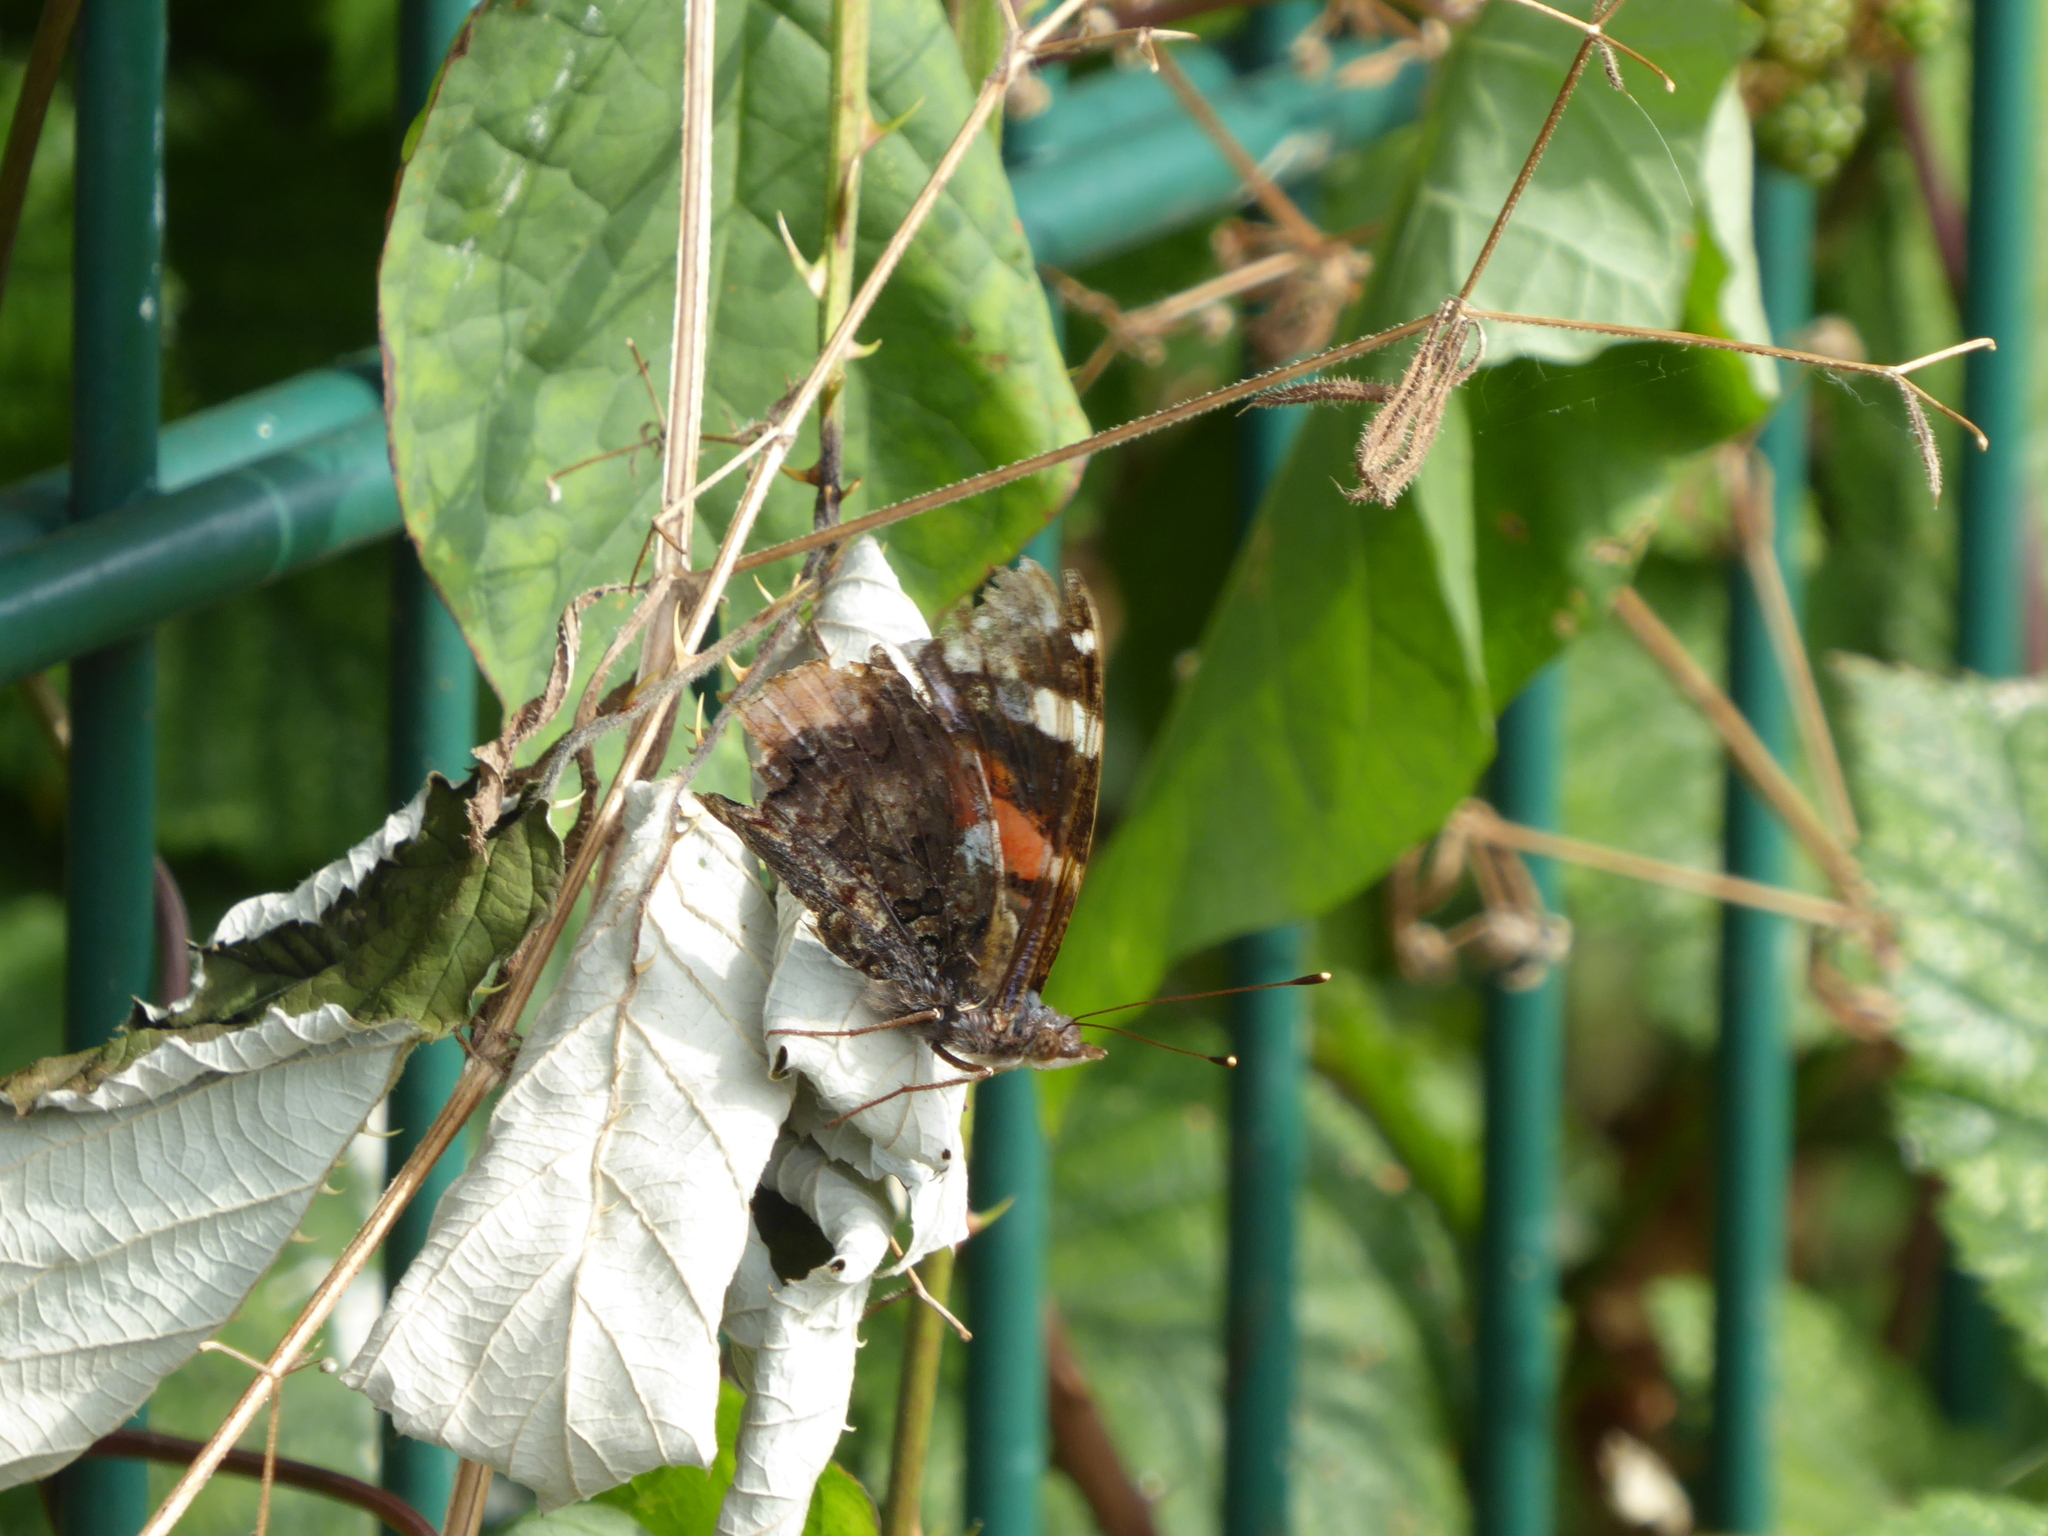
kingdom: Animalia
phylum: Arthropoda
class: Insecta
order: Lepidoptera
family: Nymphalidae
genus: Vanessa
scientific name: Vanessa atalanta
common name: Red admiral
